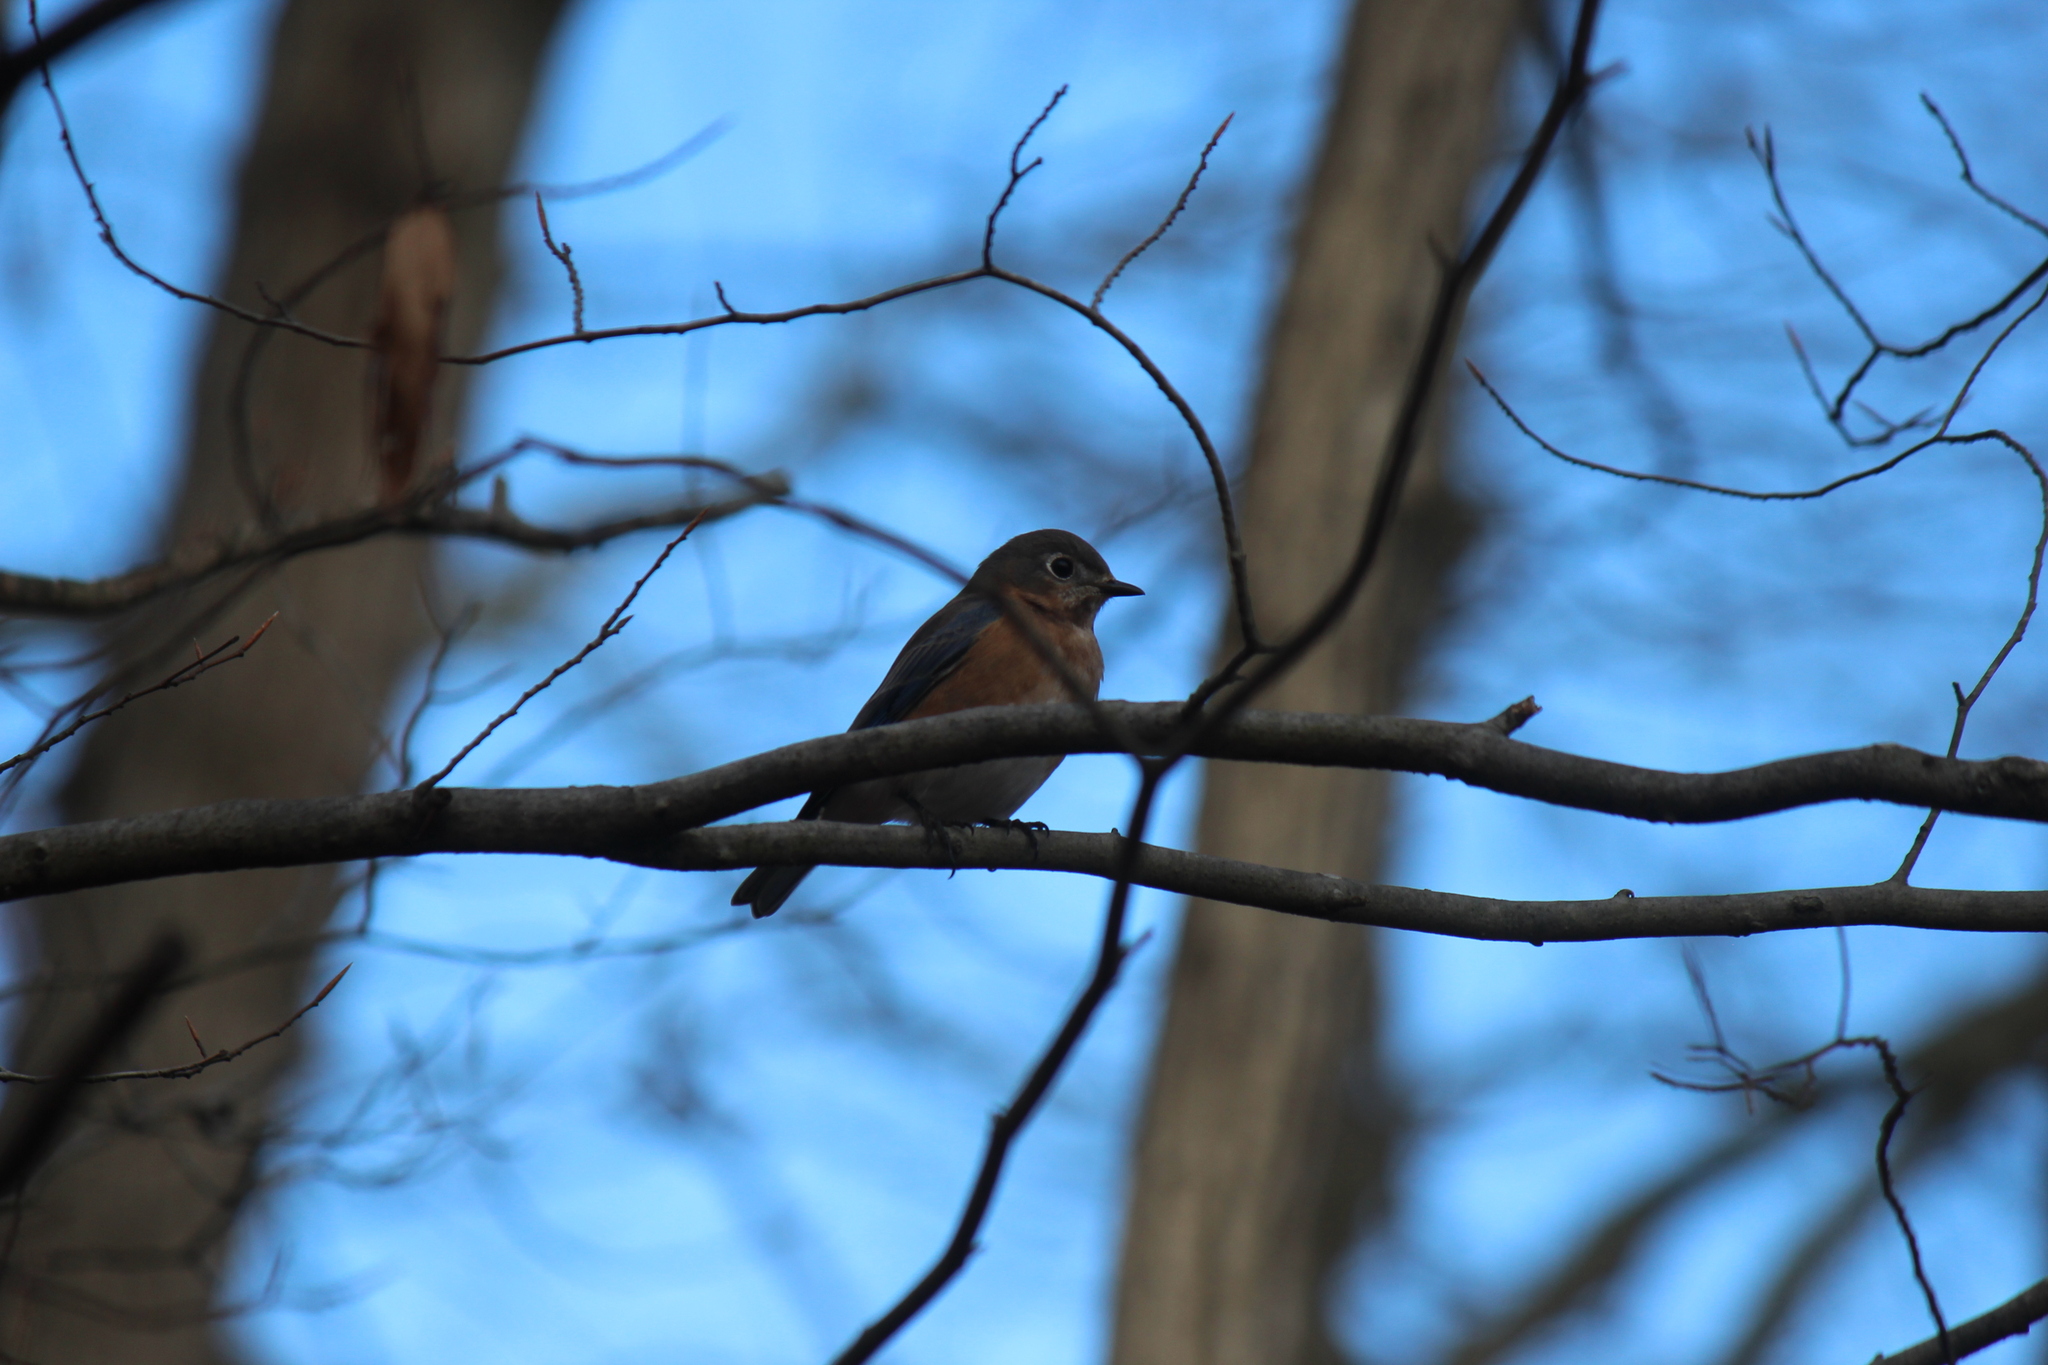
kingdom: Animalia
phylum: Chordata
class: Aves
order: Passeriformes
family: Turdidae
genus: Sialia
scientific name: Sialia sialis
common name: Eastern bluebird
